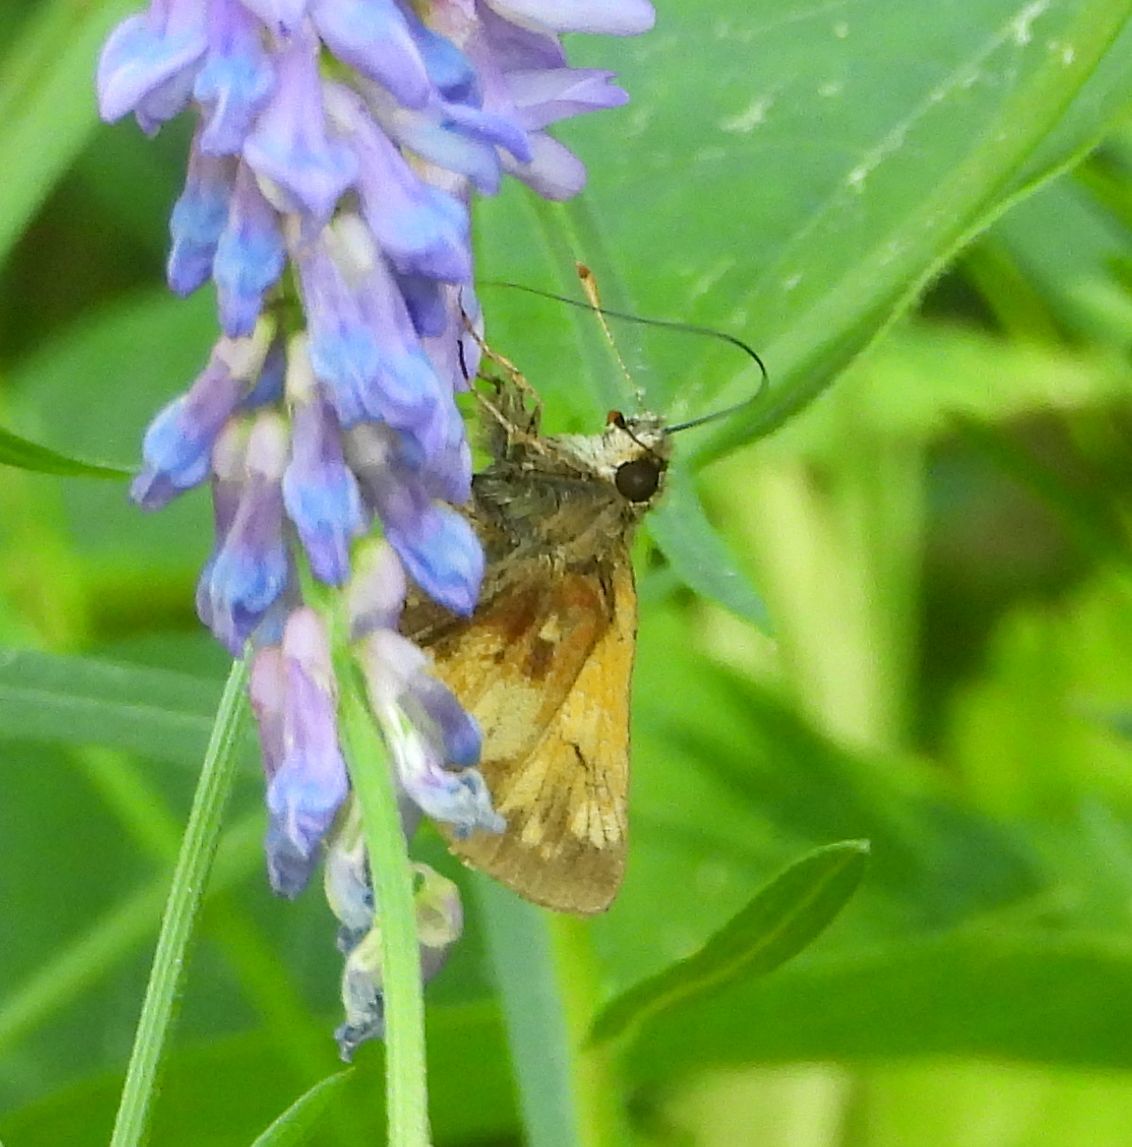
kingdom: Animalia
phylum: Arthropoda
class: Insecta
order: Lepidoptera
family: Hesperiidae
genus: Lon
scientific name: Lon hobomok
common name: Hobomok skipper
